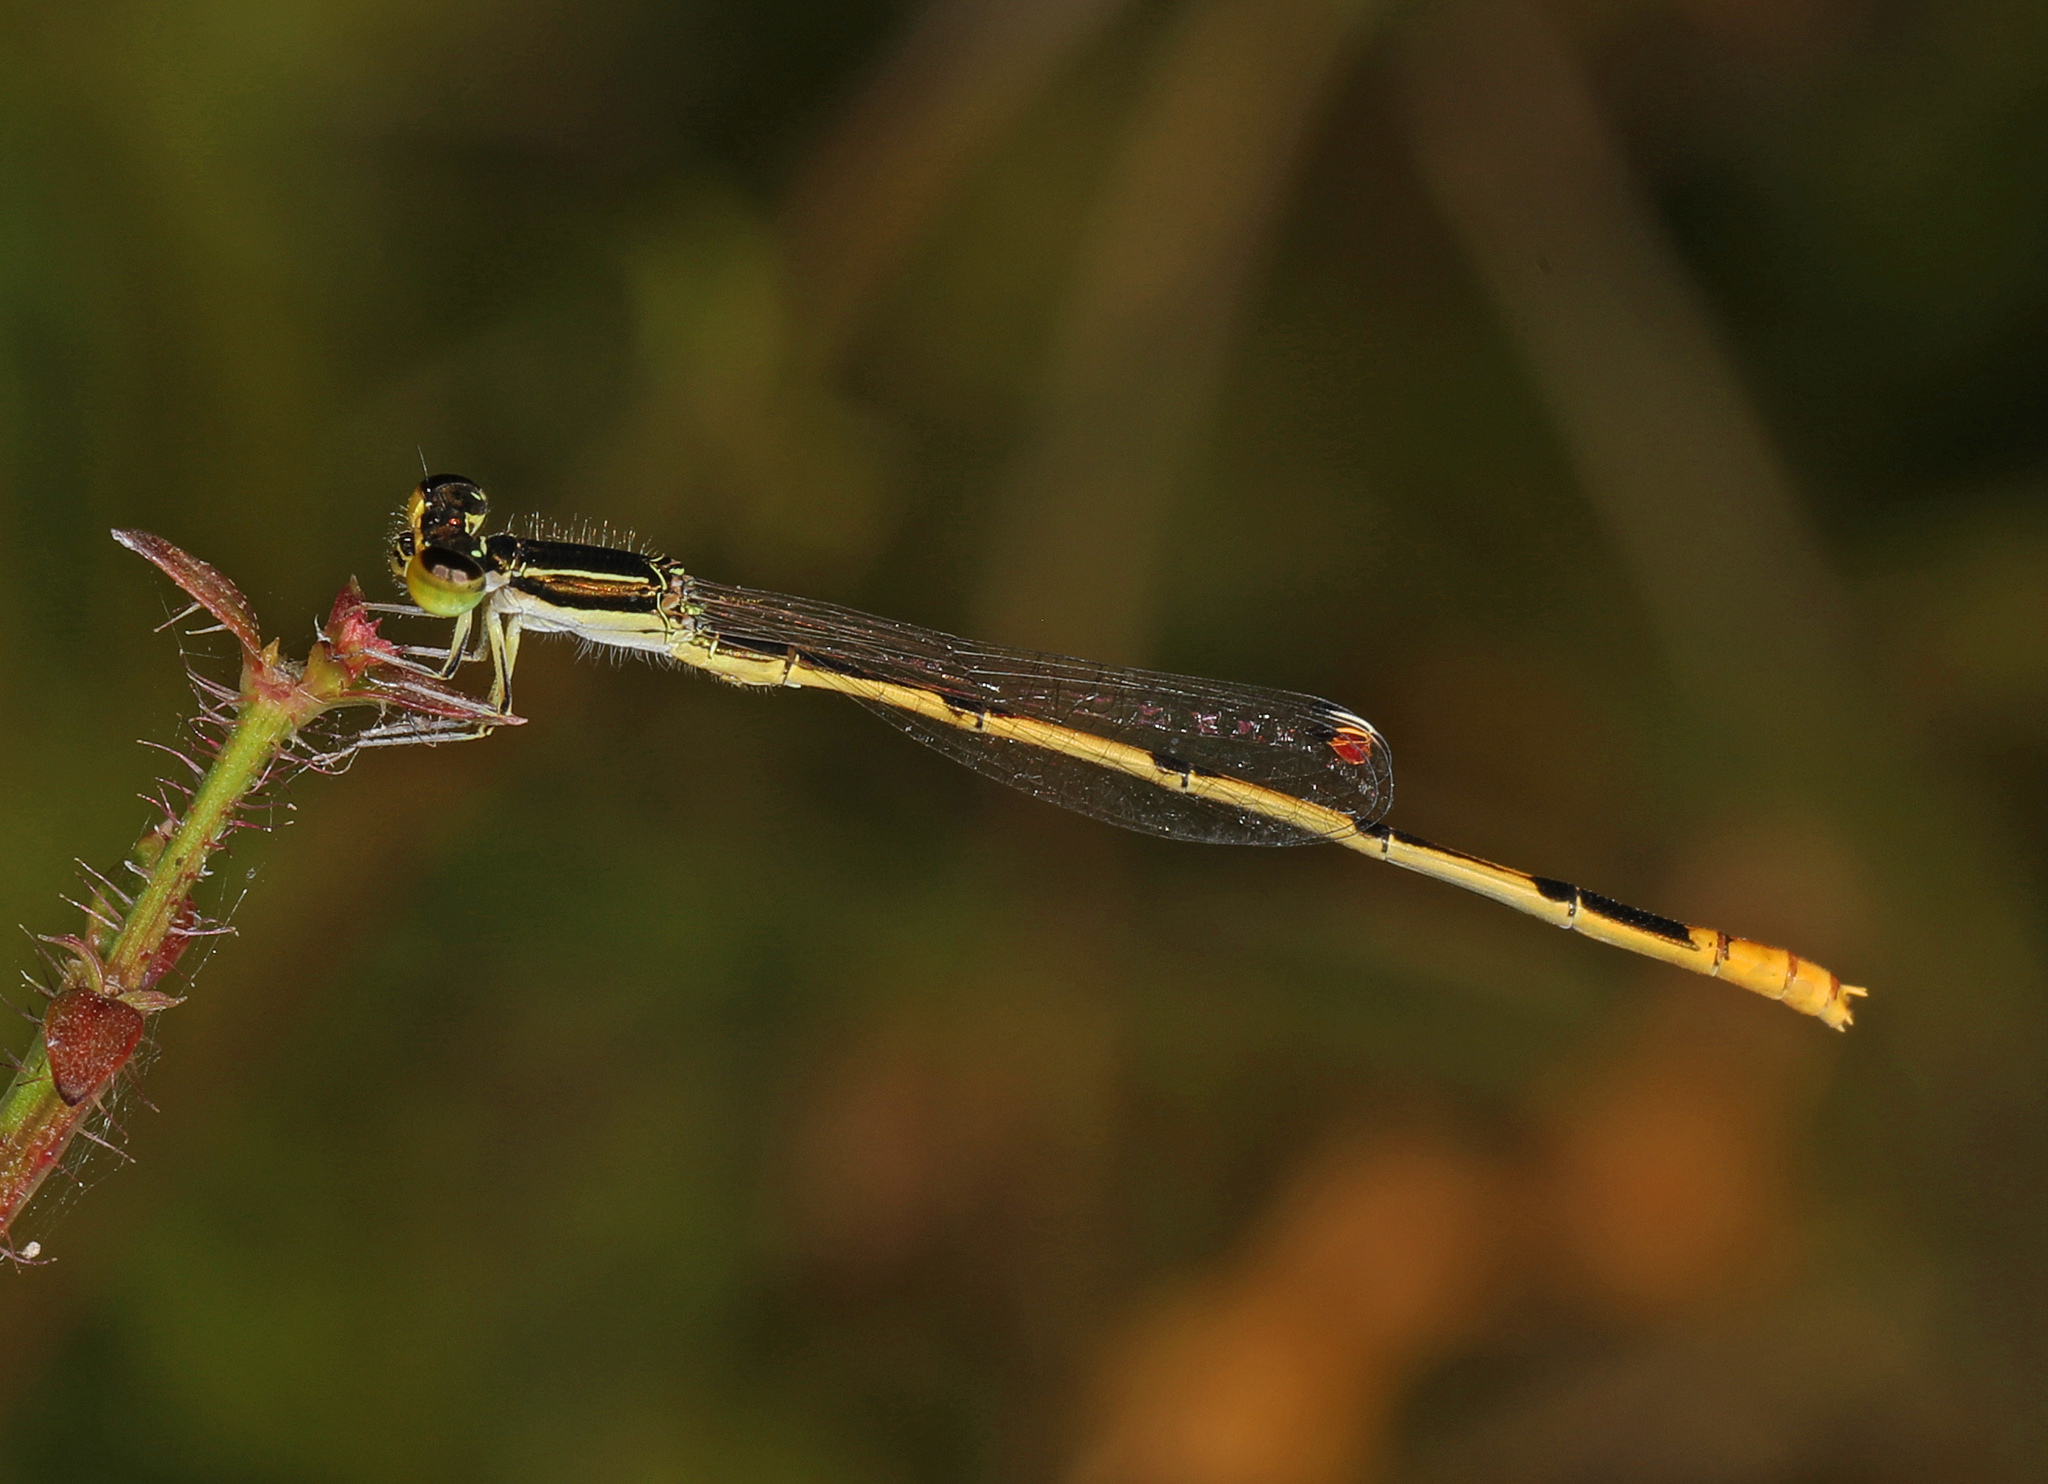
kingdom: Animalia
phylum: Arthropoda
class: Insecta
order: Odonata
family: Coenagrionidae
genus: Ischnura
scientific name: Ischnura hastata
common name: Citrine forktail
